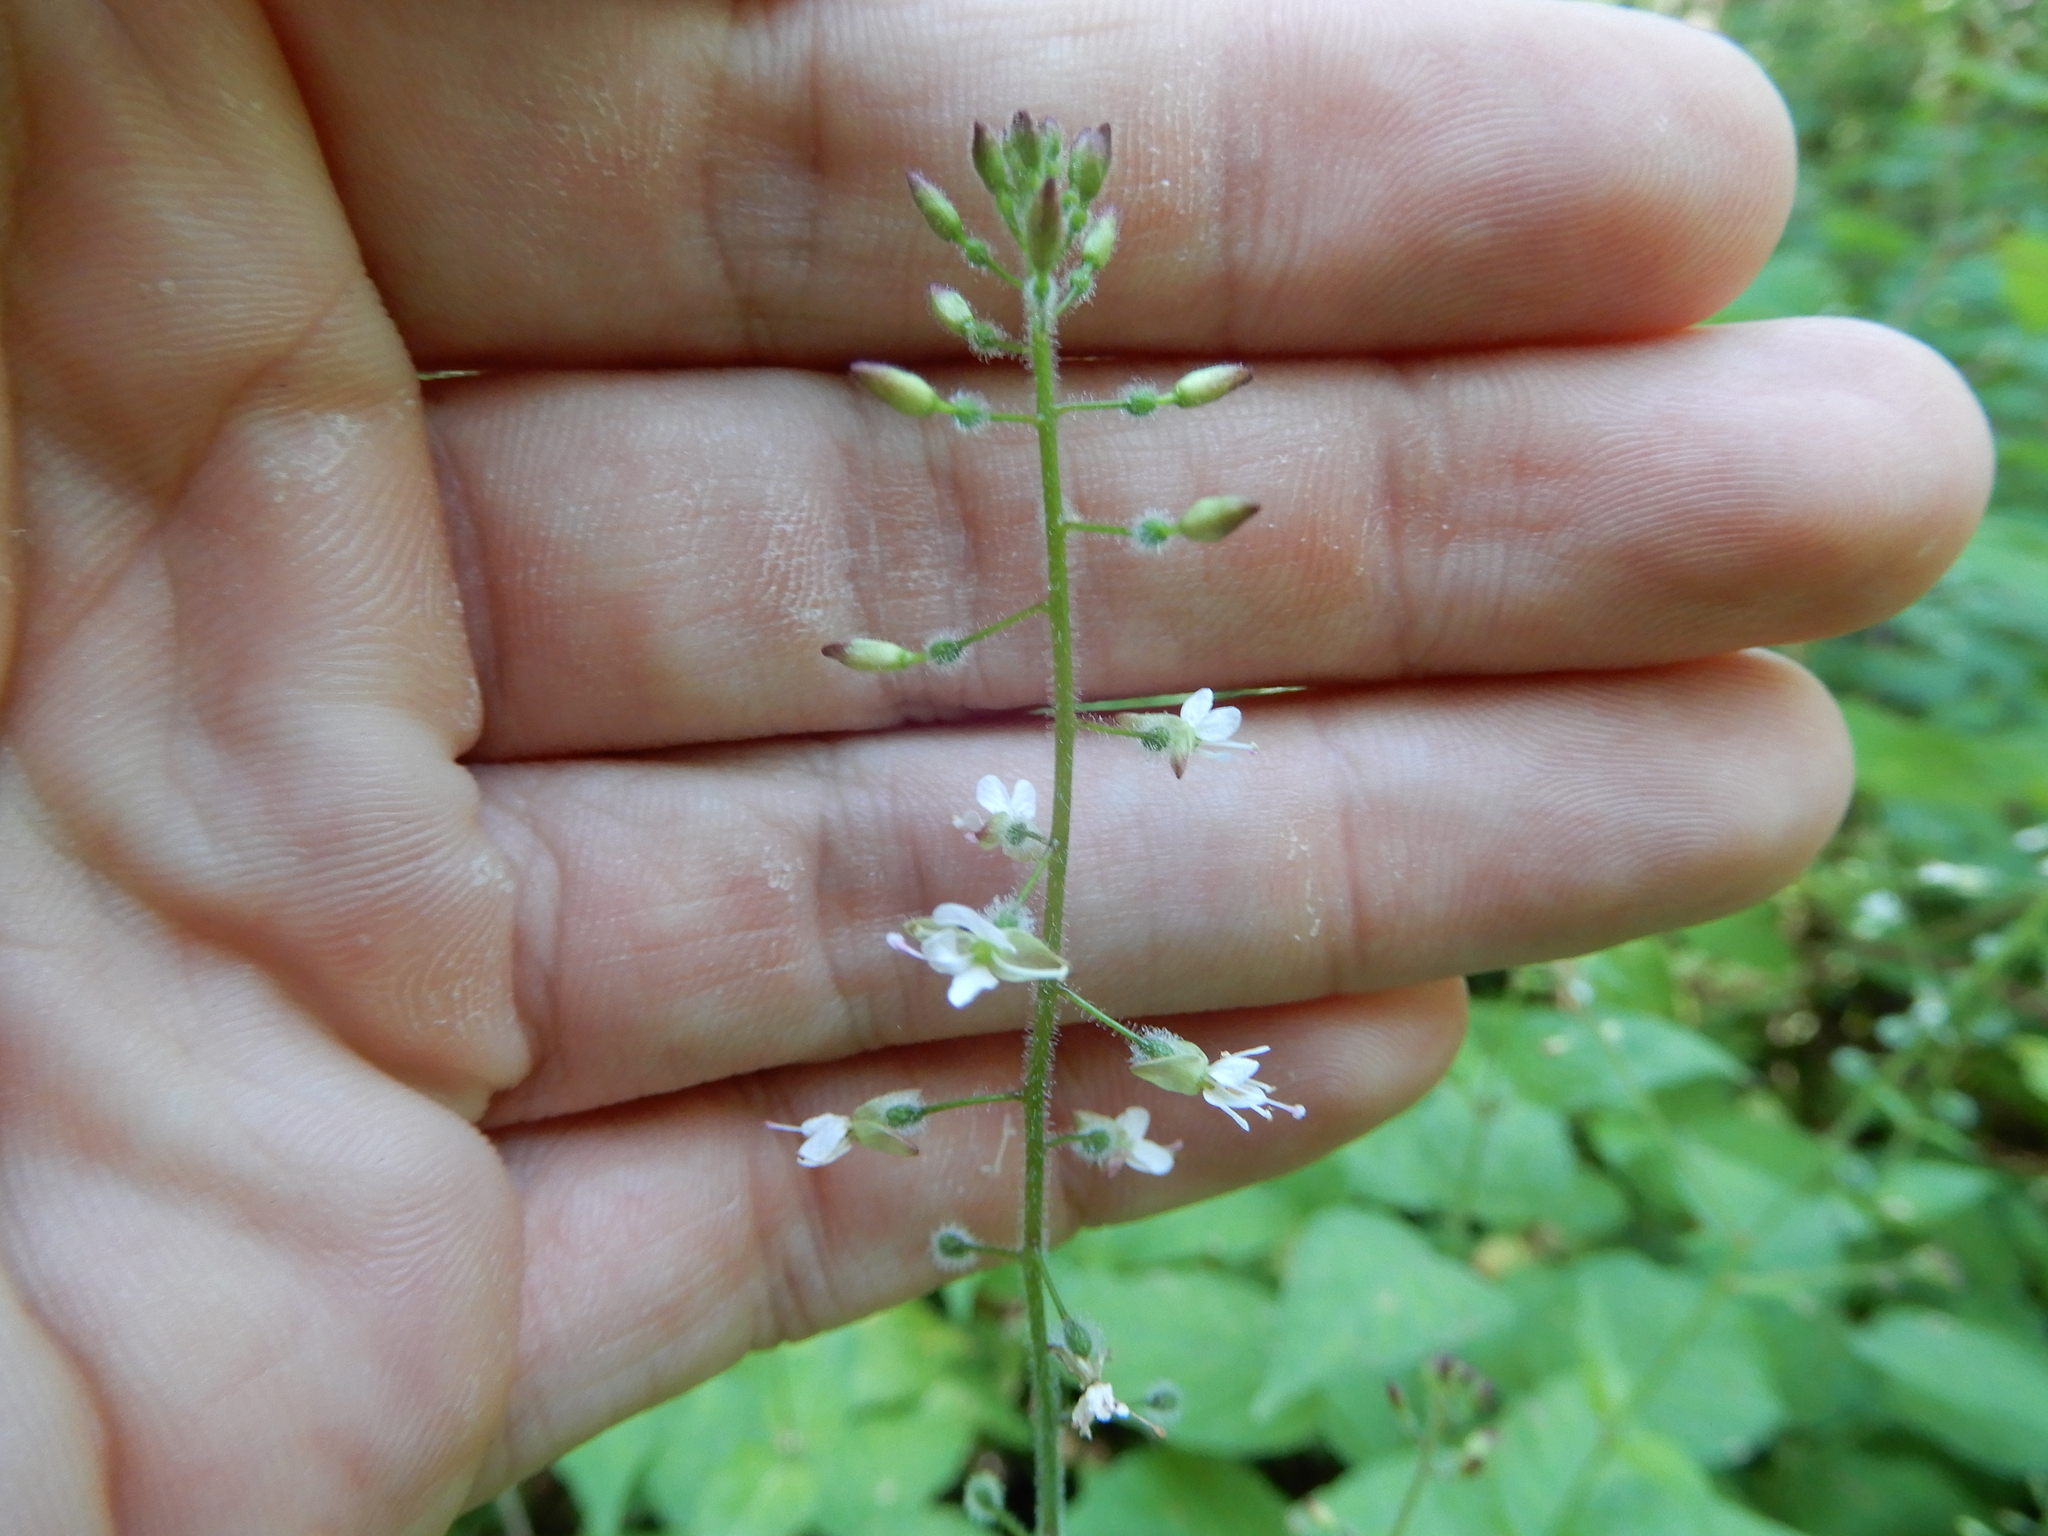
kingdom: Plantae
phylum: Tracheophyta
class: Magnoliopsida
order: Myrtales
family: Onagraceae
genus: Circaea
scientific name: Circaea lutetiana
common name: Enchanter's-nightshade
